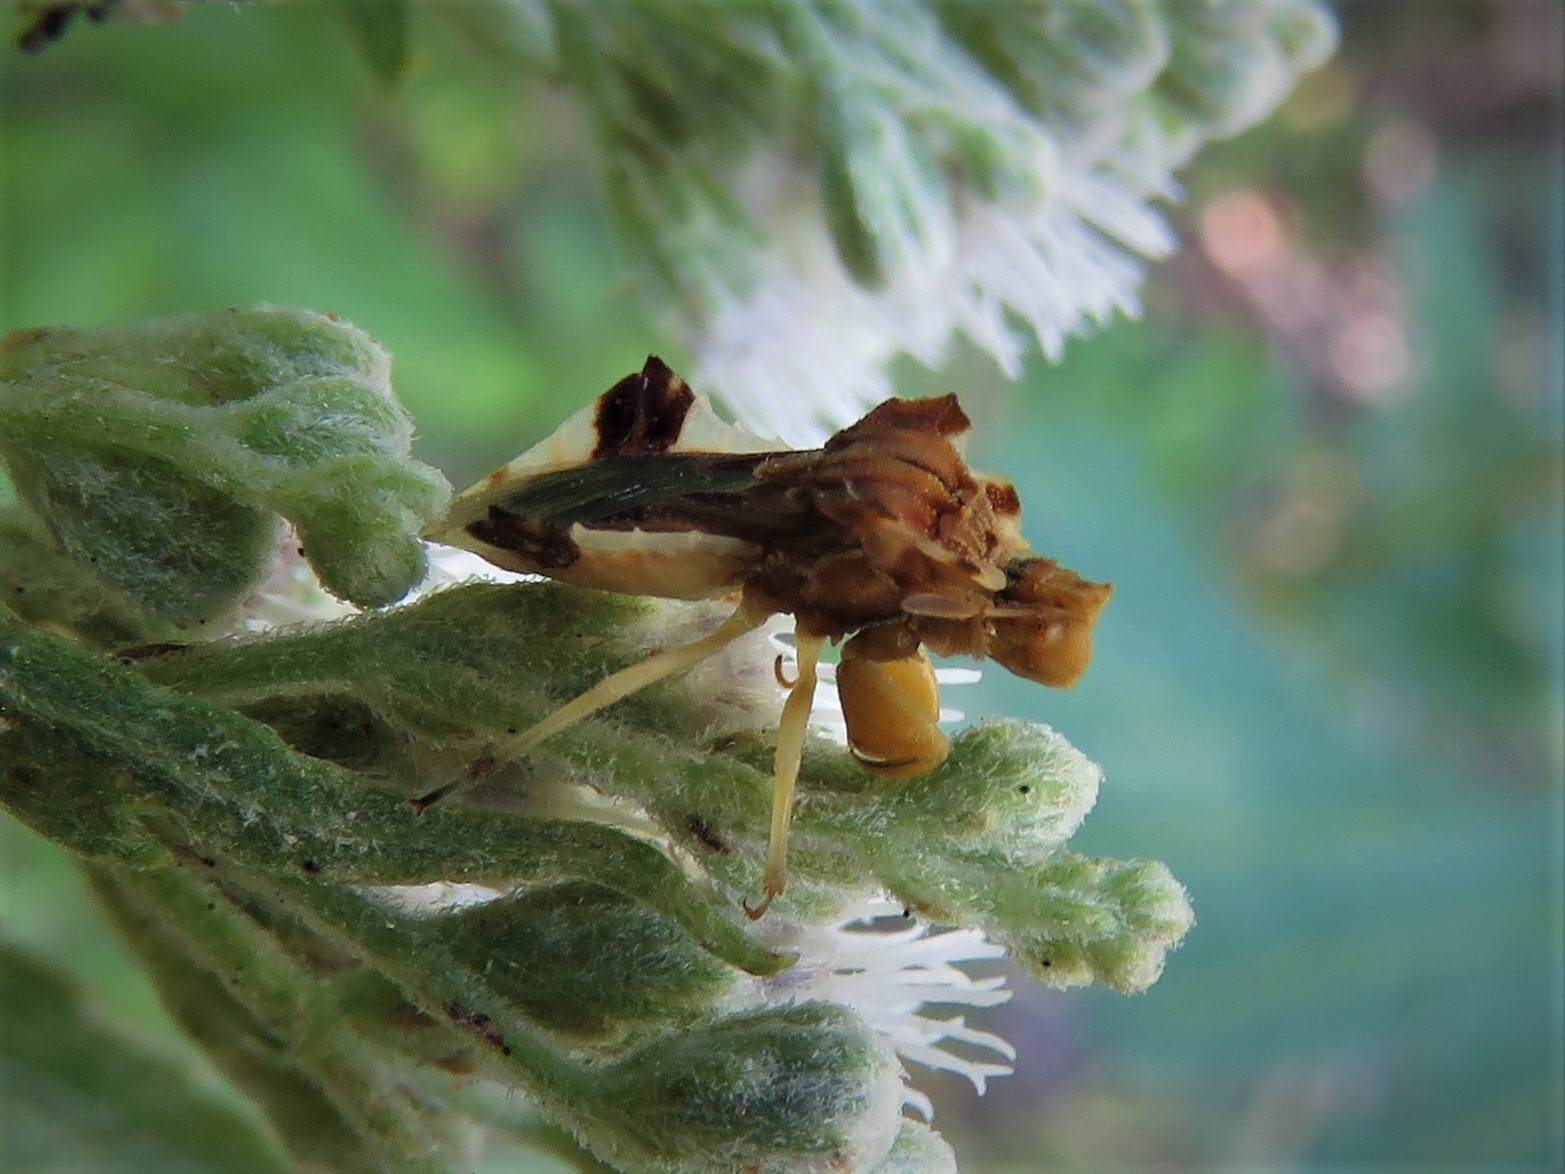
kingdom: Animalia
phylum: Arthropoda
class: Insecta
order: Hemiptera
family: Reduviidae
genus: Phymata
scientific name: Phymata fasciata
